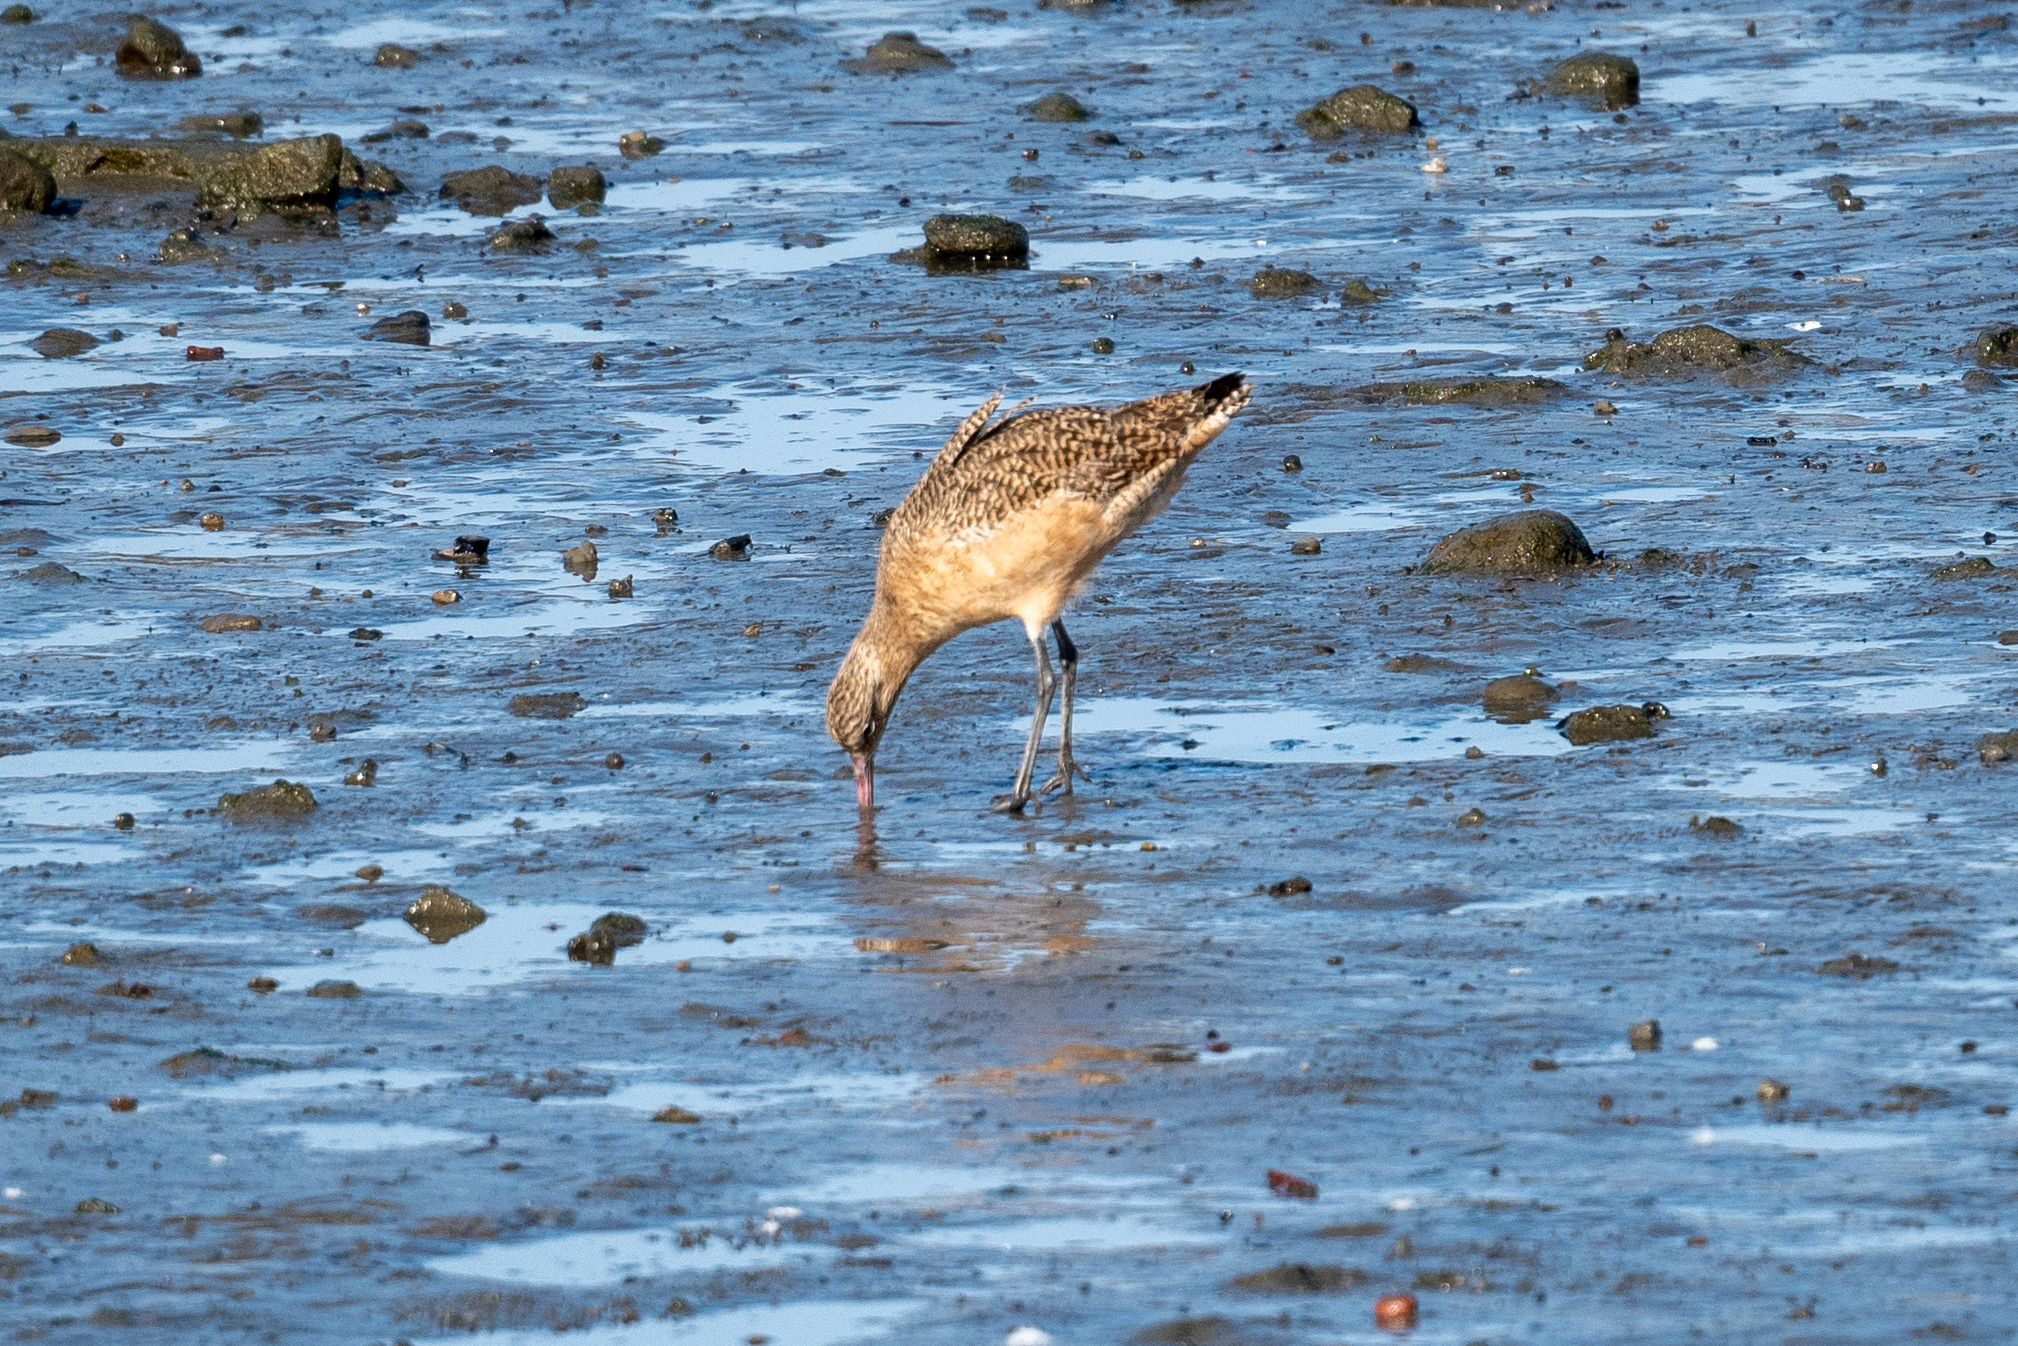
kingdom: Animalia
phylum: Chordata
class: Aves
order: Charadriiformes
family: Scolopacidae
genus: Limosa
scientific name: Limosa fedoa
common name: Marbled godwit
